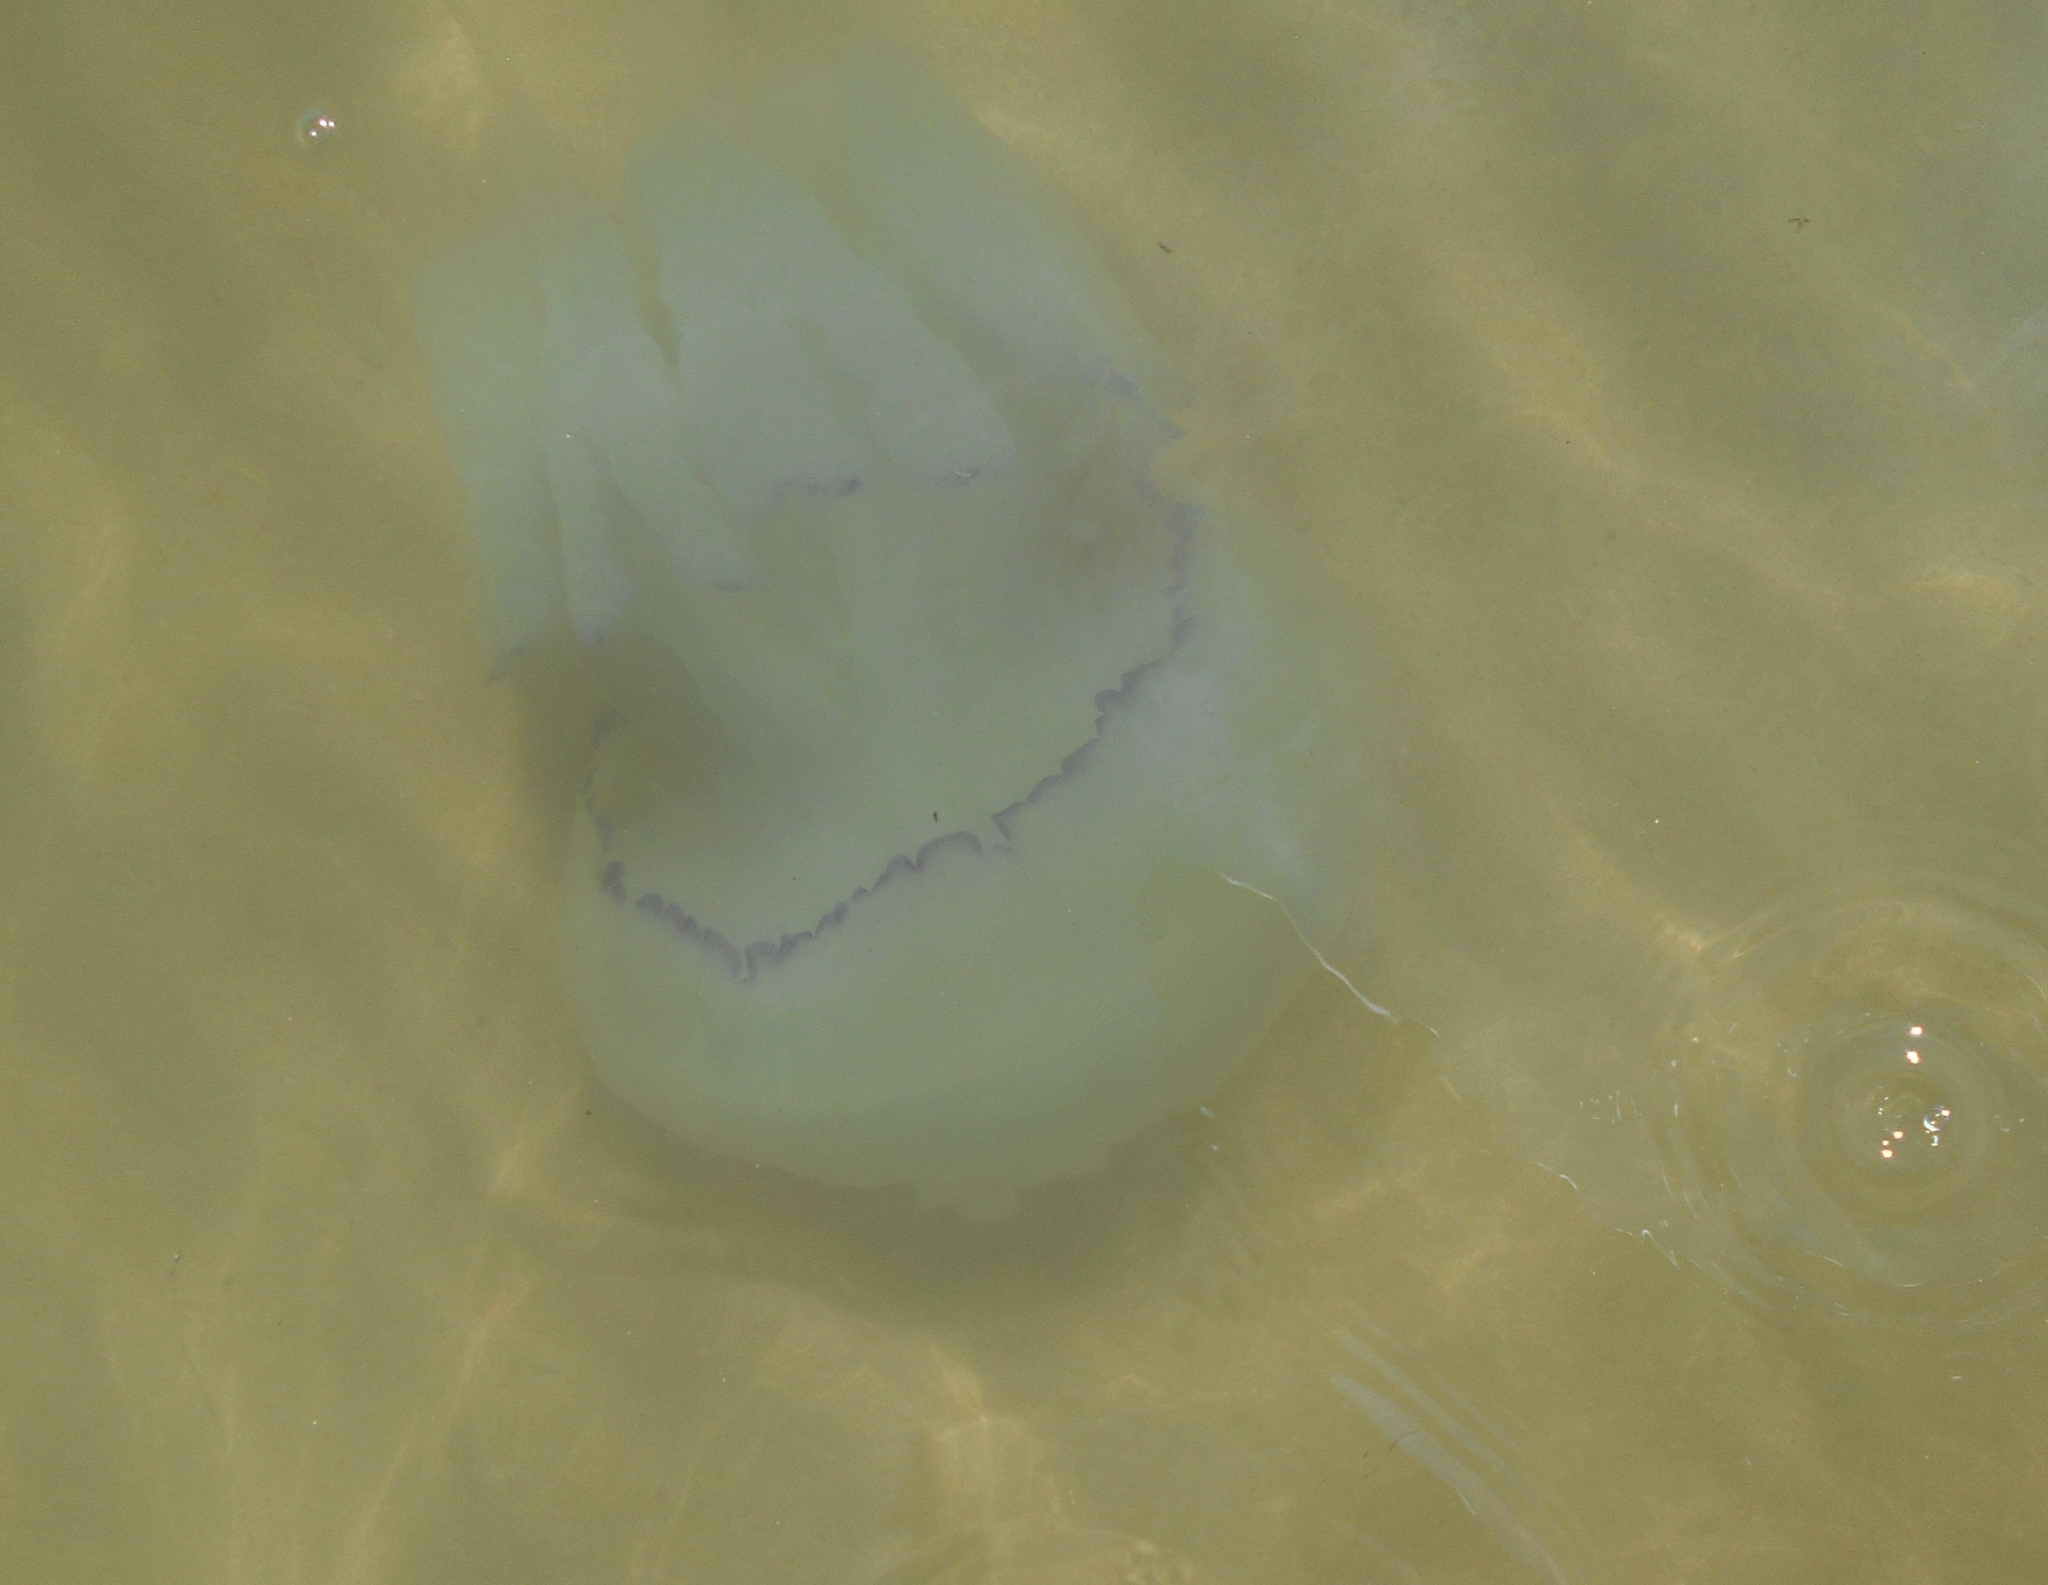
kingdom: Animalia
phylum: Cnidaria
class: Scyphozoa
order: Rhizostomeae
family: Rhizostomatidae
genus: Rhizostoma
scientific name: Rhizostoma pulmo
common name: Barrel jellyfish
